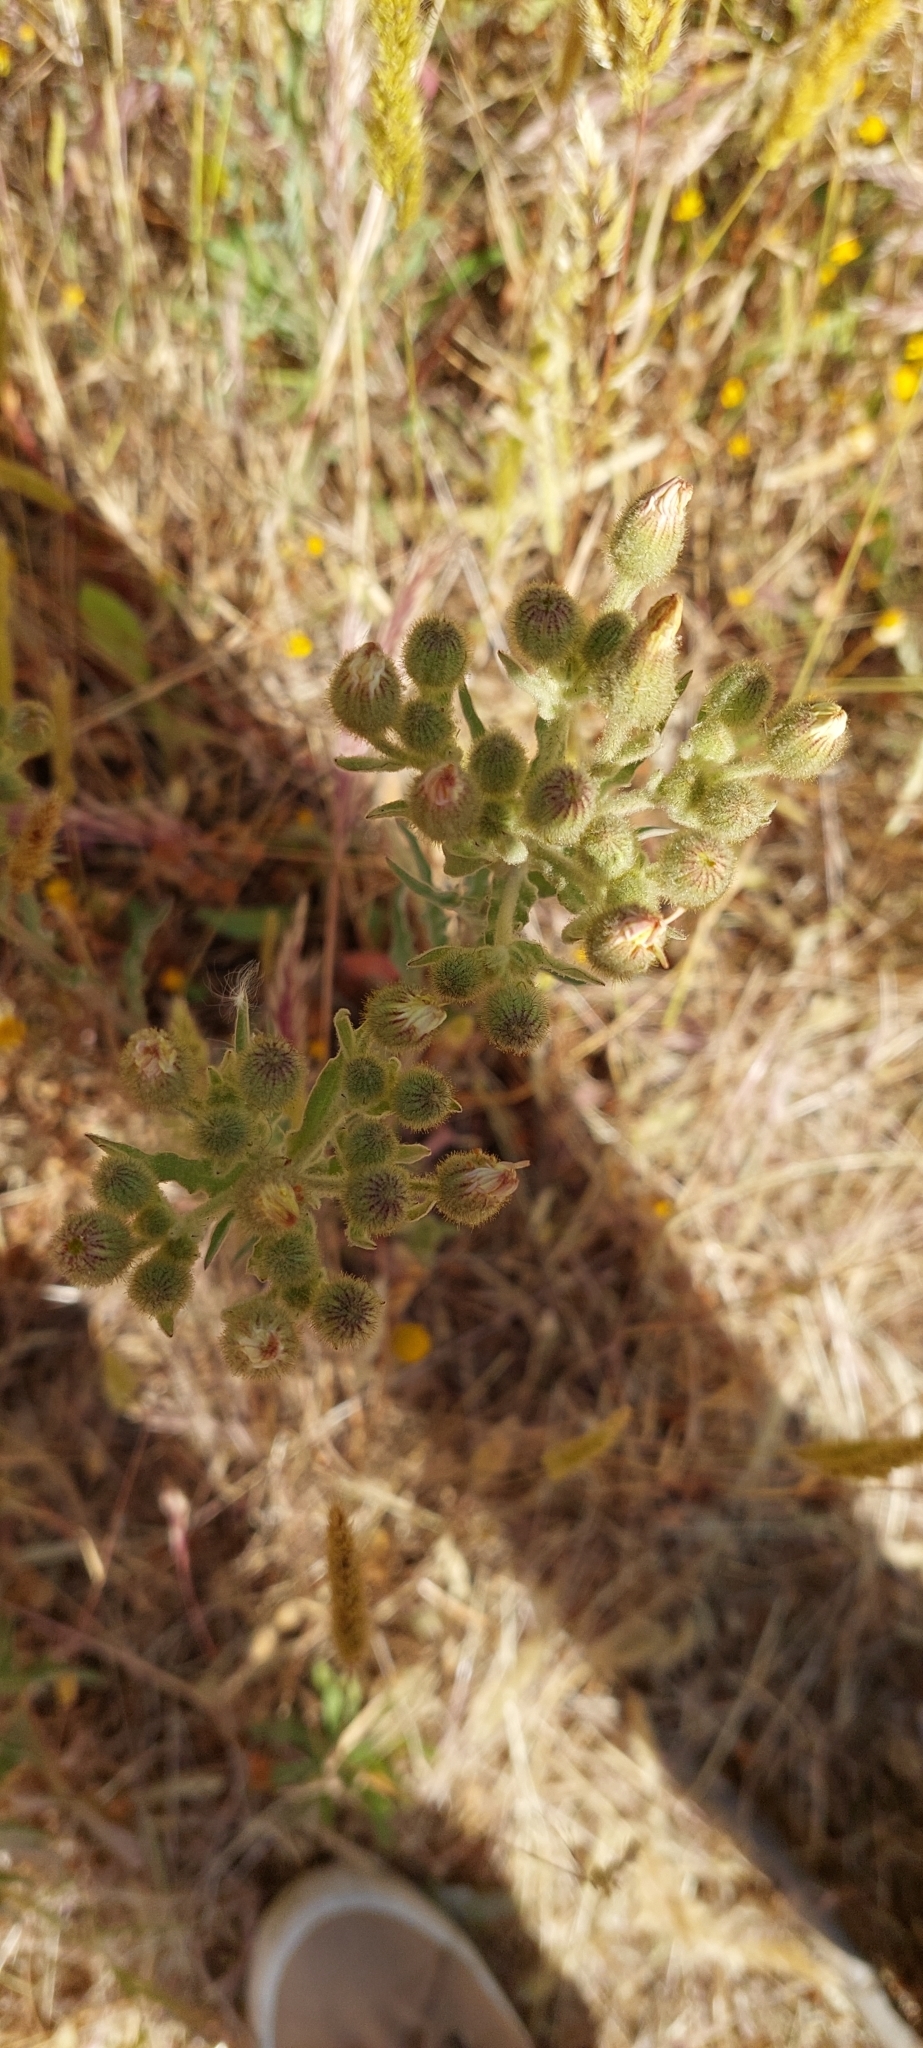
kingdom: Plantae
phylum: Tracheophyta
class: Magnoliopsida
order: Asterales
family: Asteraceae
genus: Andryala
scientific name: Andryala integrifolia
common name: Common andryala
